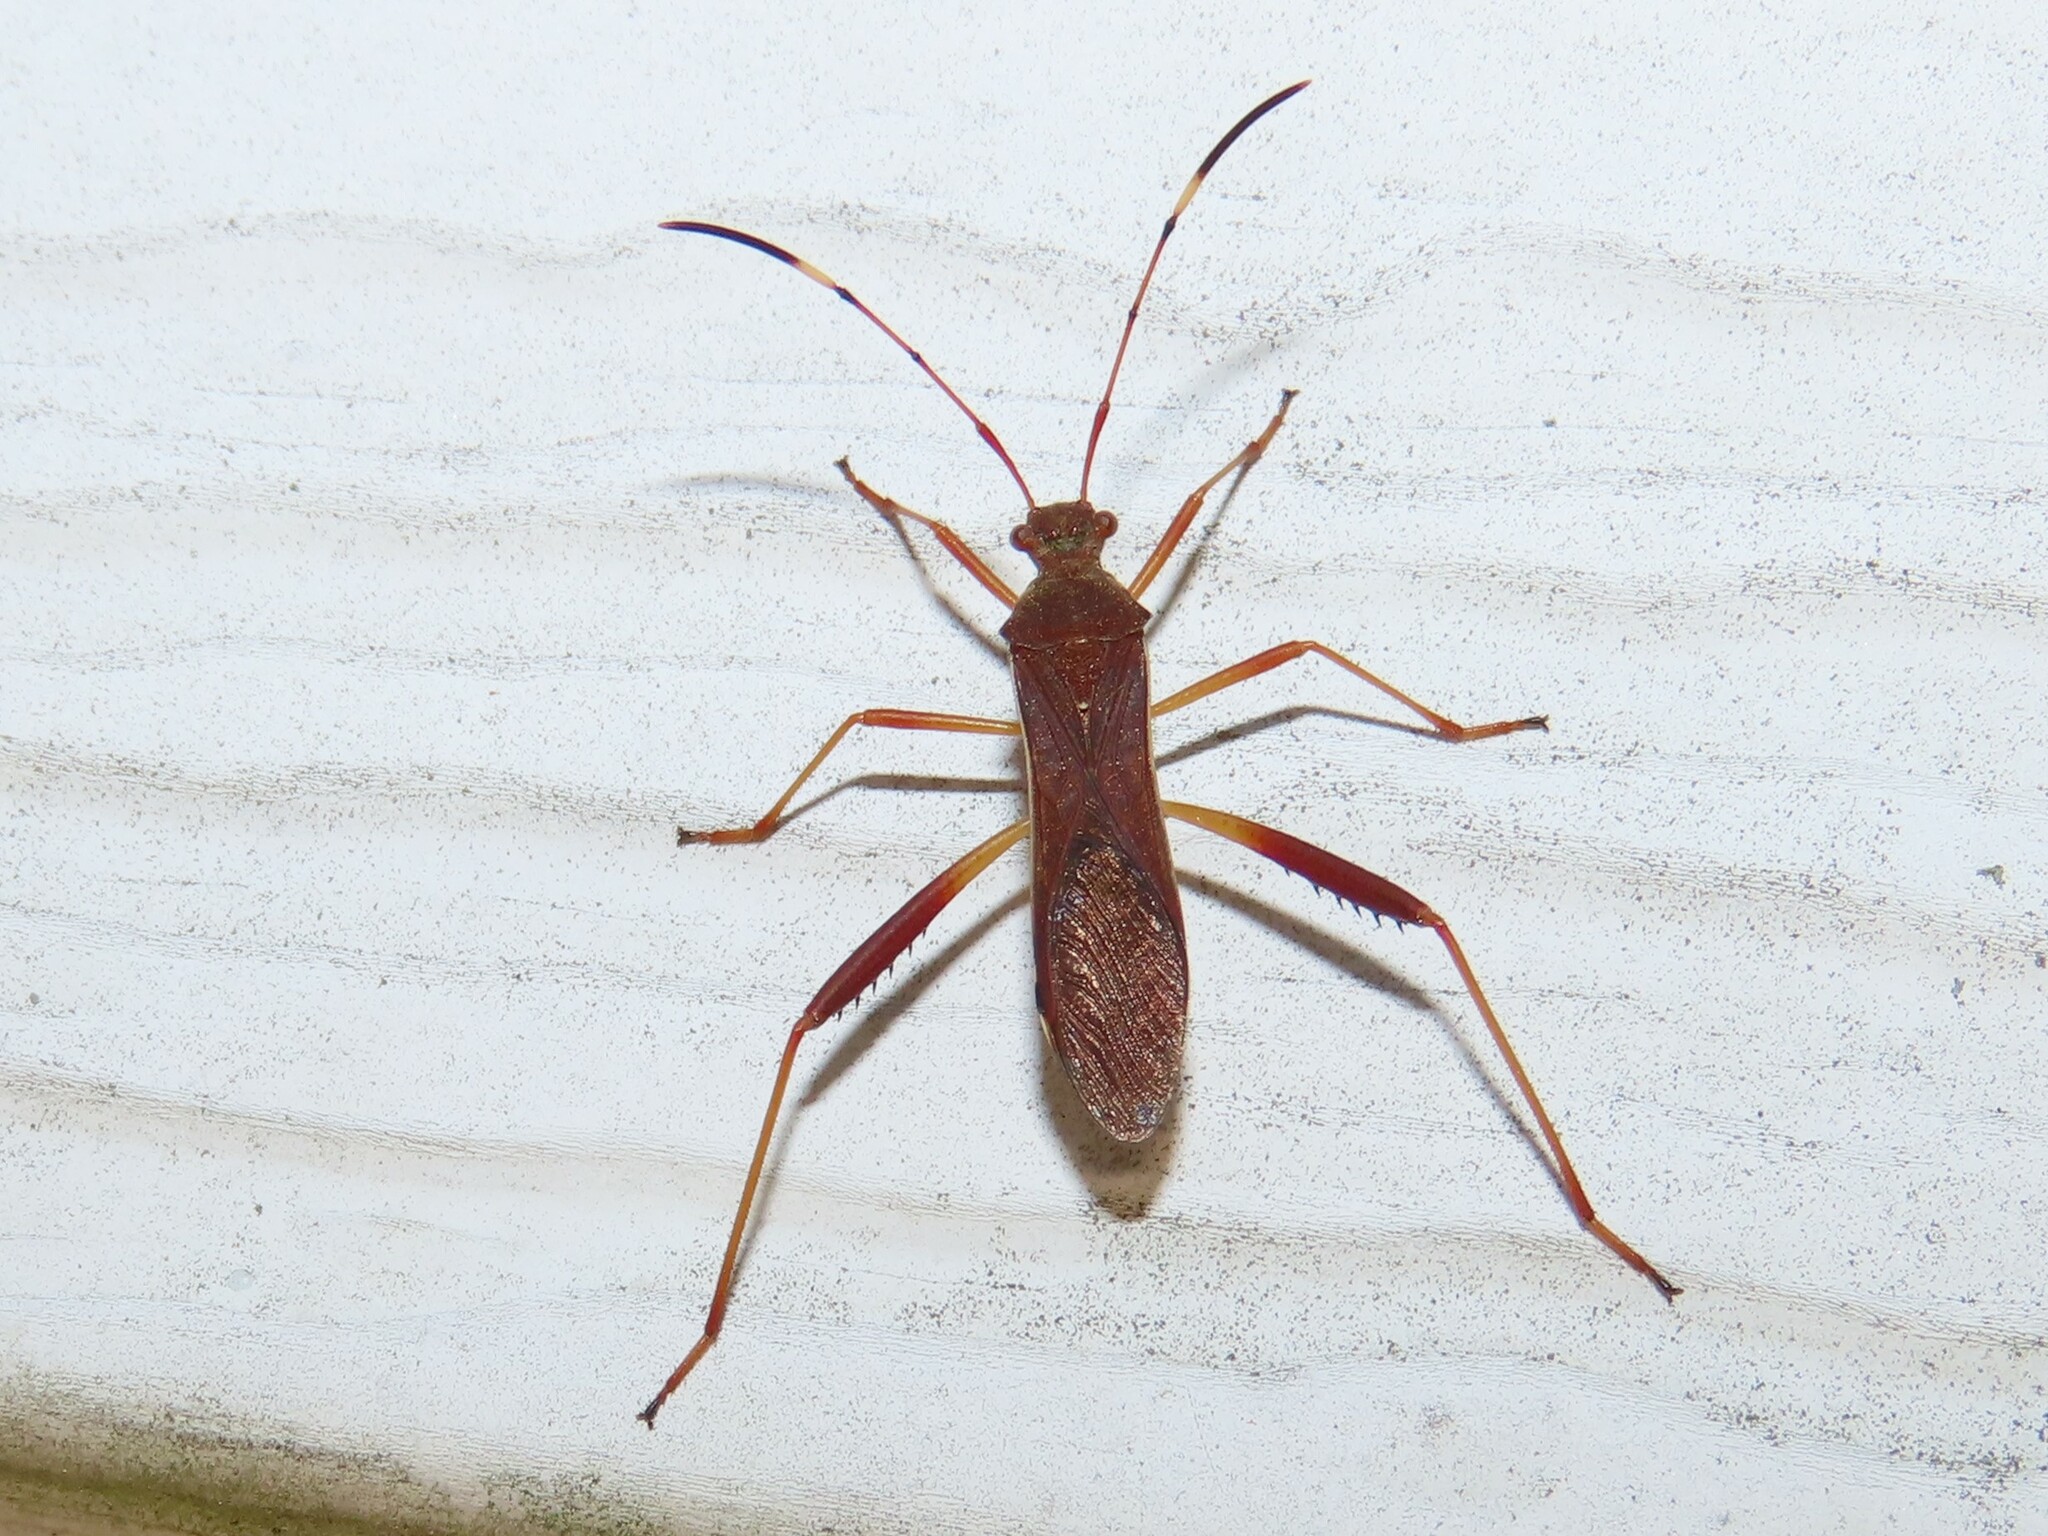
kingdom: Animalia
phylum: Arthropoda
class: Insecta
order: Hemiptera
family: Alydidae
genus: Megalotomus
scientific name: Megalotomus quinquespinosus
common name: Lupine bug
